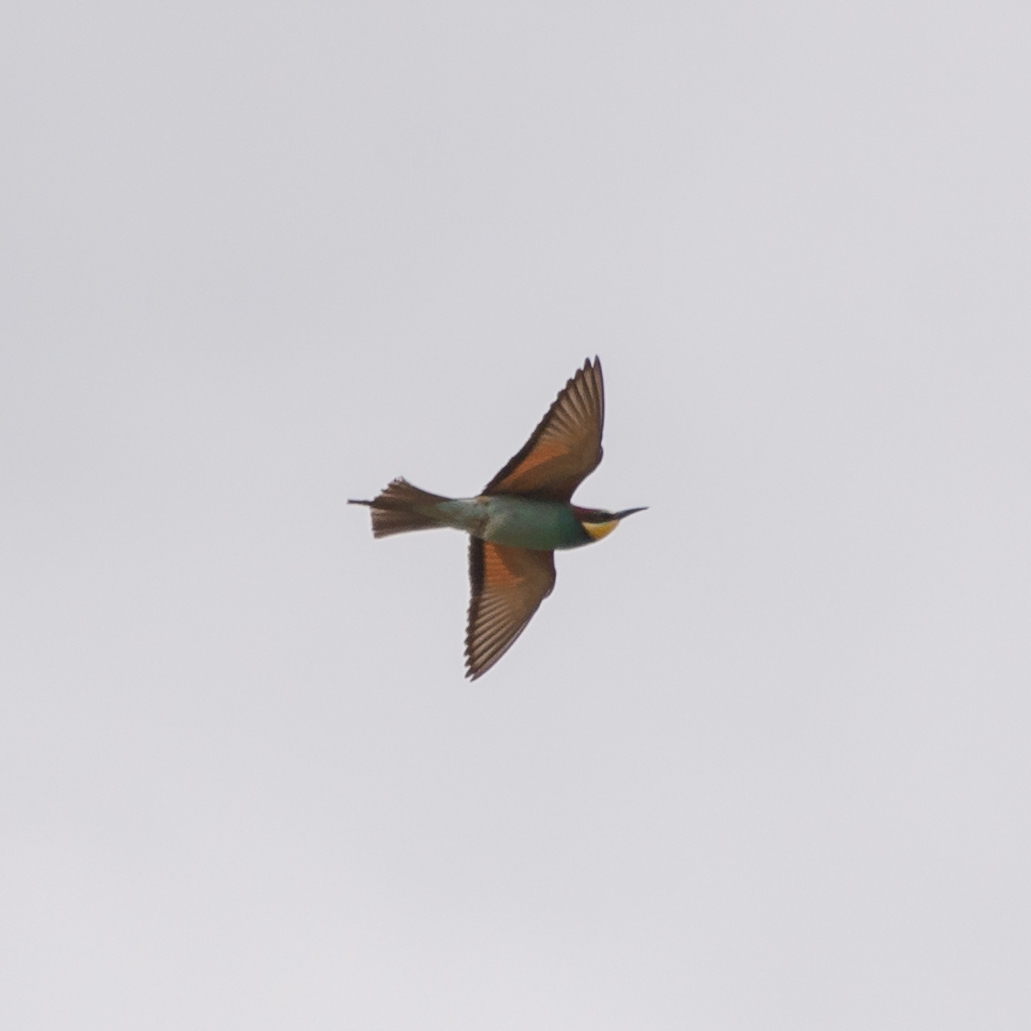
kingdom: Animalia
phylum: Chordata
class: Aves
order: Coraciiformes
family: Meropidae
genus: Merops
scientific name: Merops apiaster
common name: European bee-eater
